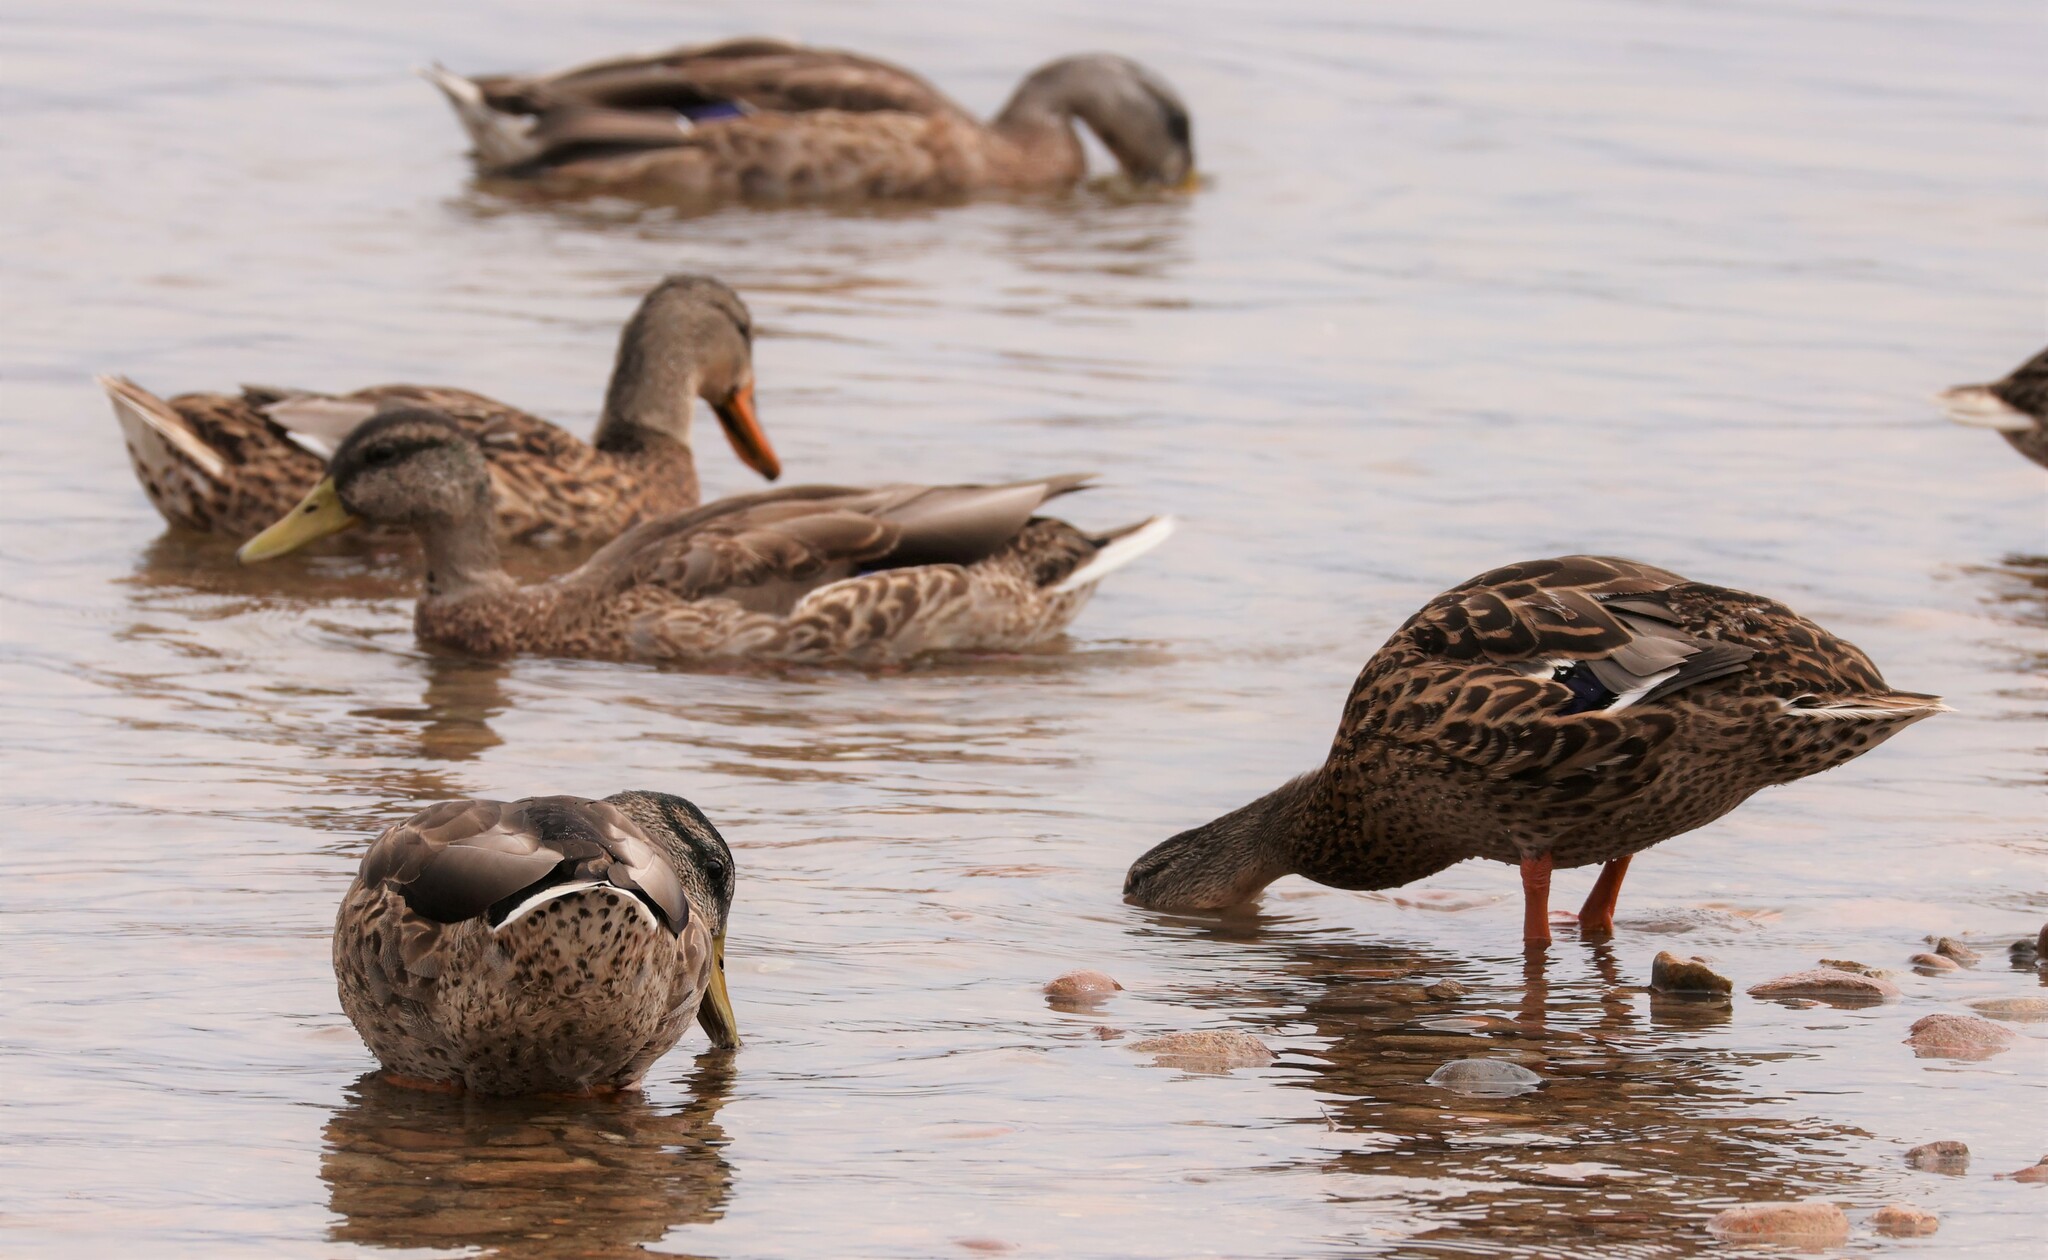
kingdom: Animalia
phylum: Chordata
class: Aves
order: Anseriformes
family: Anatidae
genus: Anas
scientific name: Anas platyrhynchos
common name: Mallard
